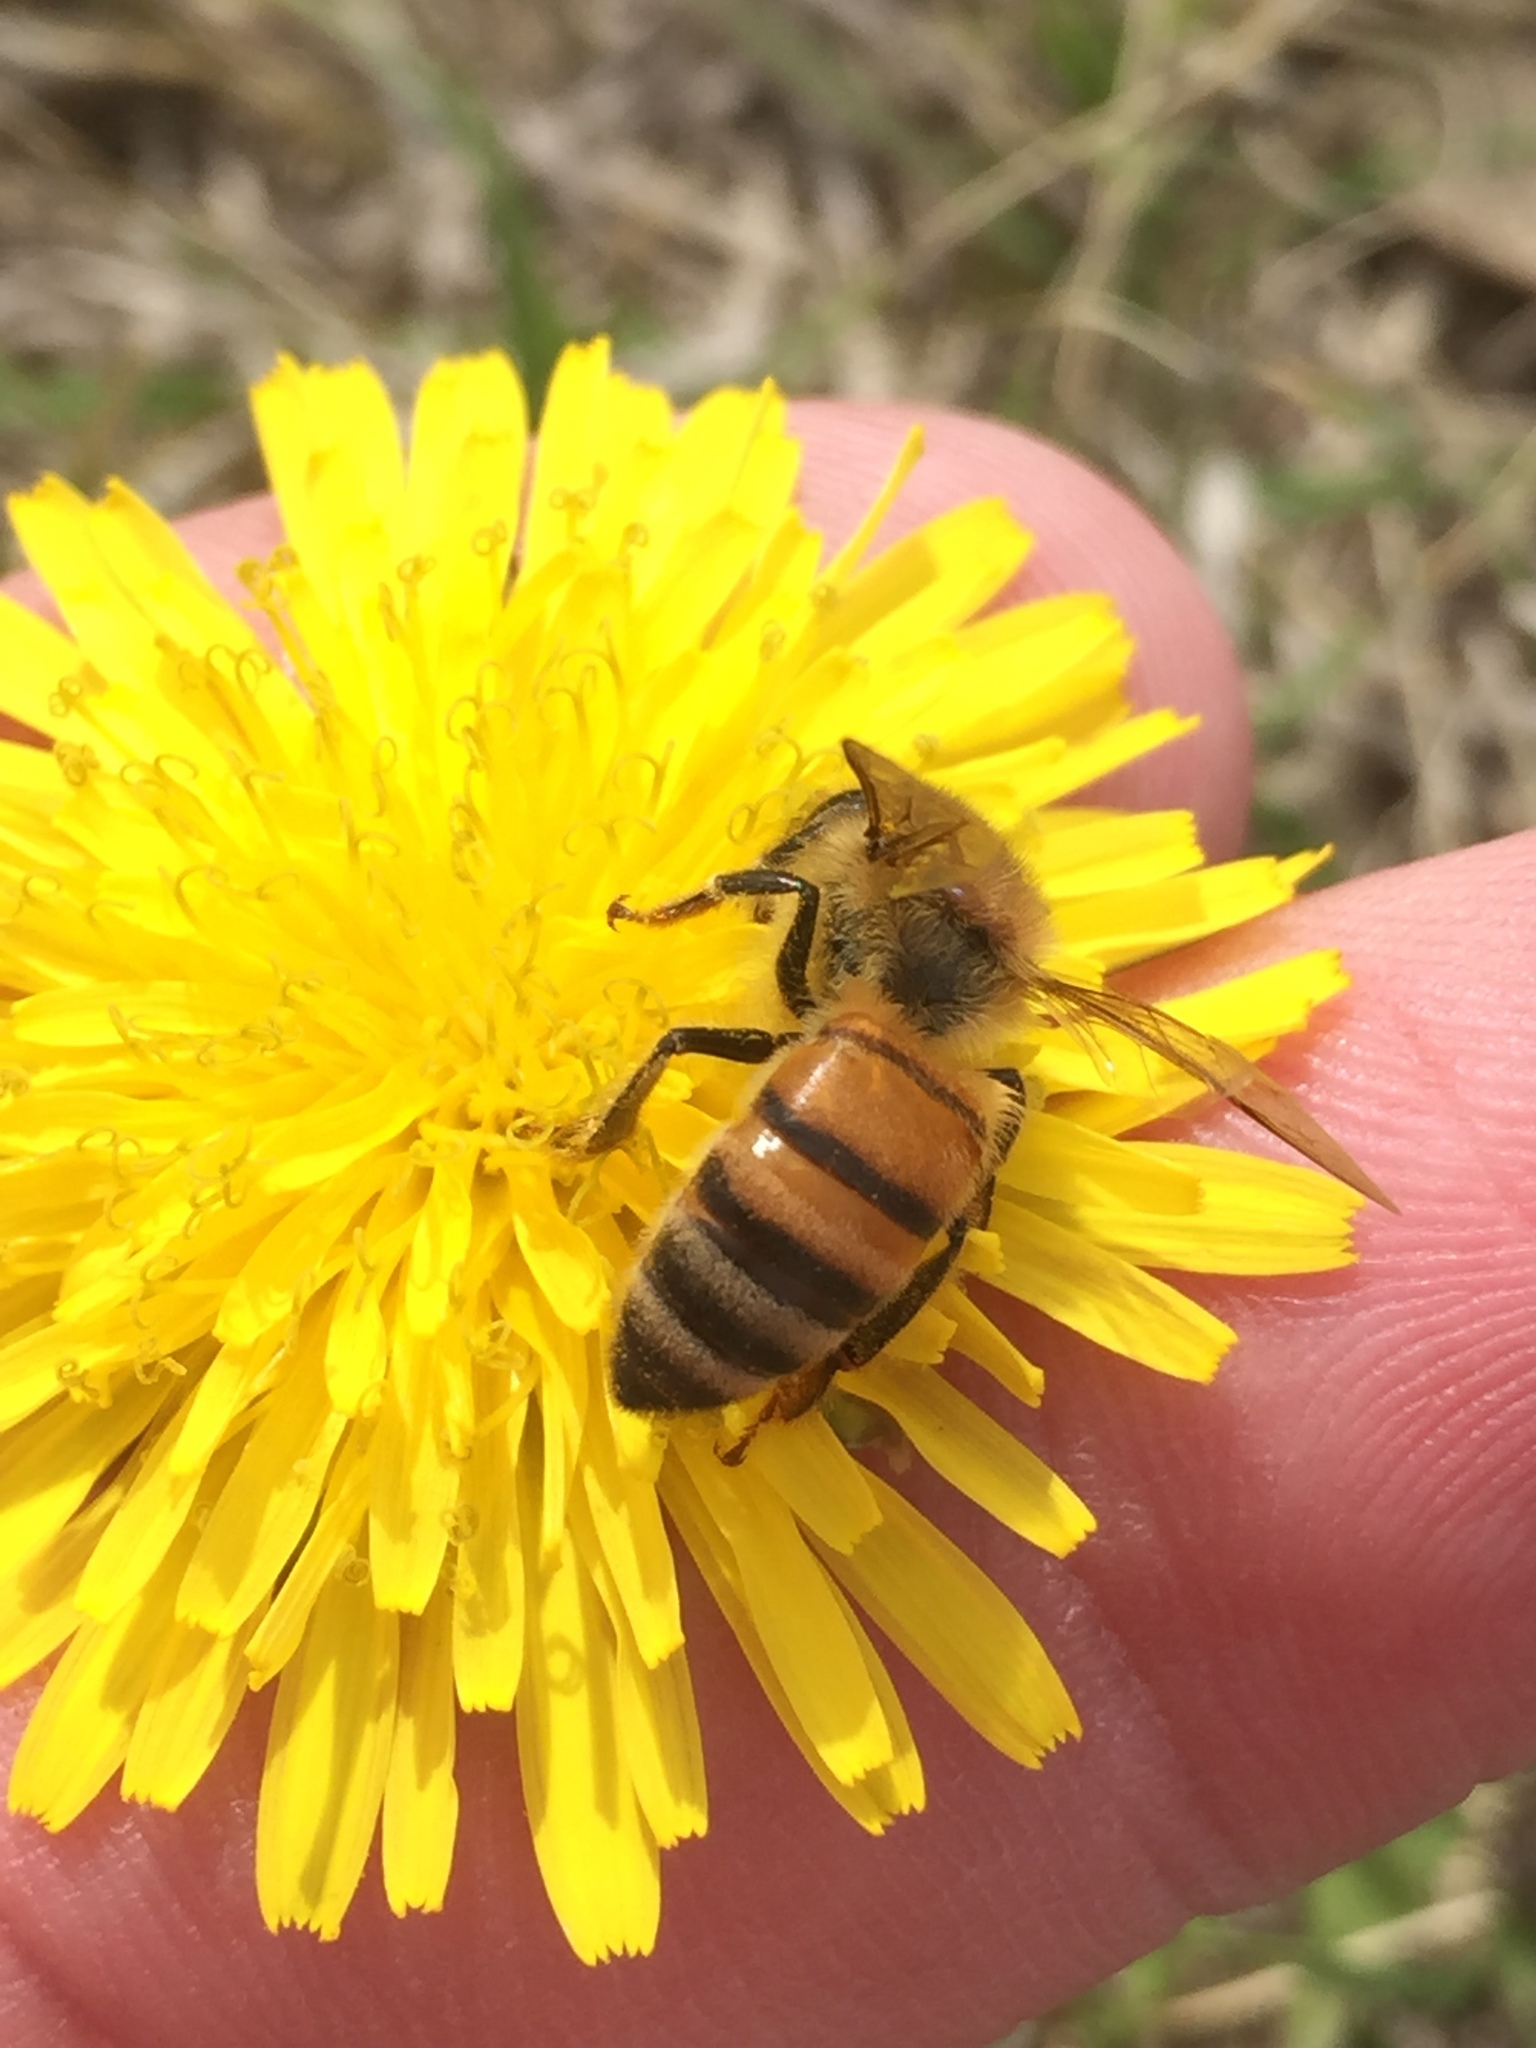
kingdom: Animalia
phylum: Arthropoda
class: Insecta
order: Hymenoptera
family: Apidae
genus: Apis
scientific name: Apis mellifera
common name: Honey bee
